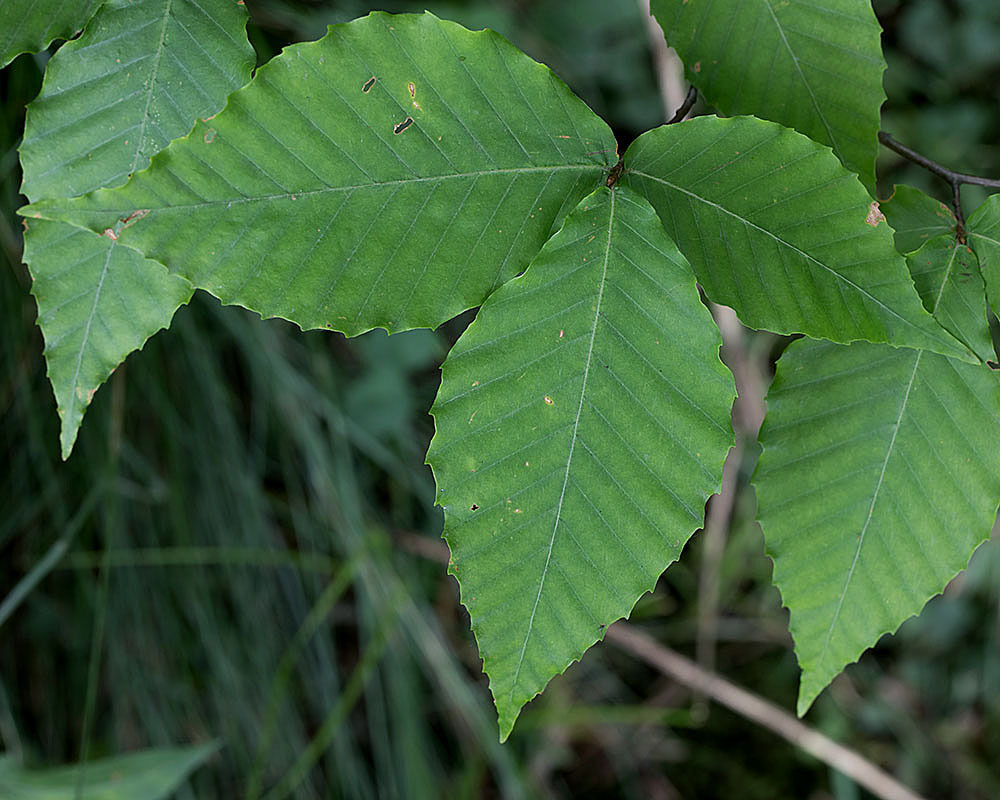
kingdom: Plantae
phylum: Tracheophyta
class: Magnoliopsida
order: Fagales
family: Fagaceae
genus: Fagus
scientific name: Fagus grandifolia
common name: American beech
